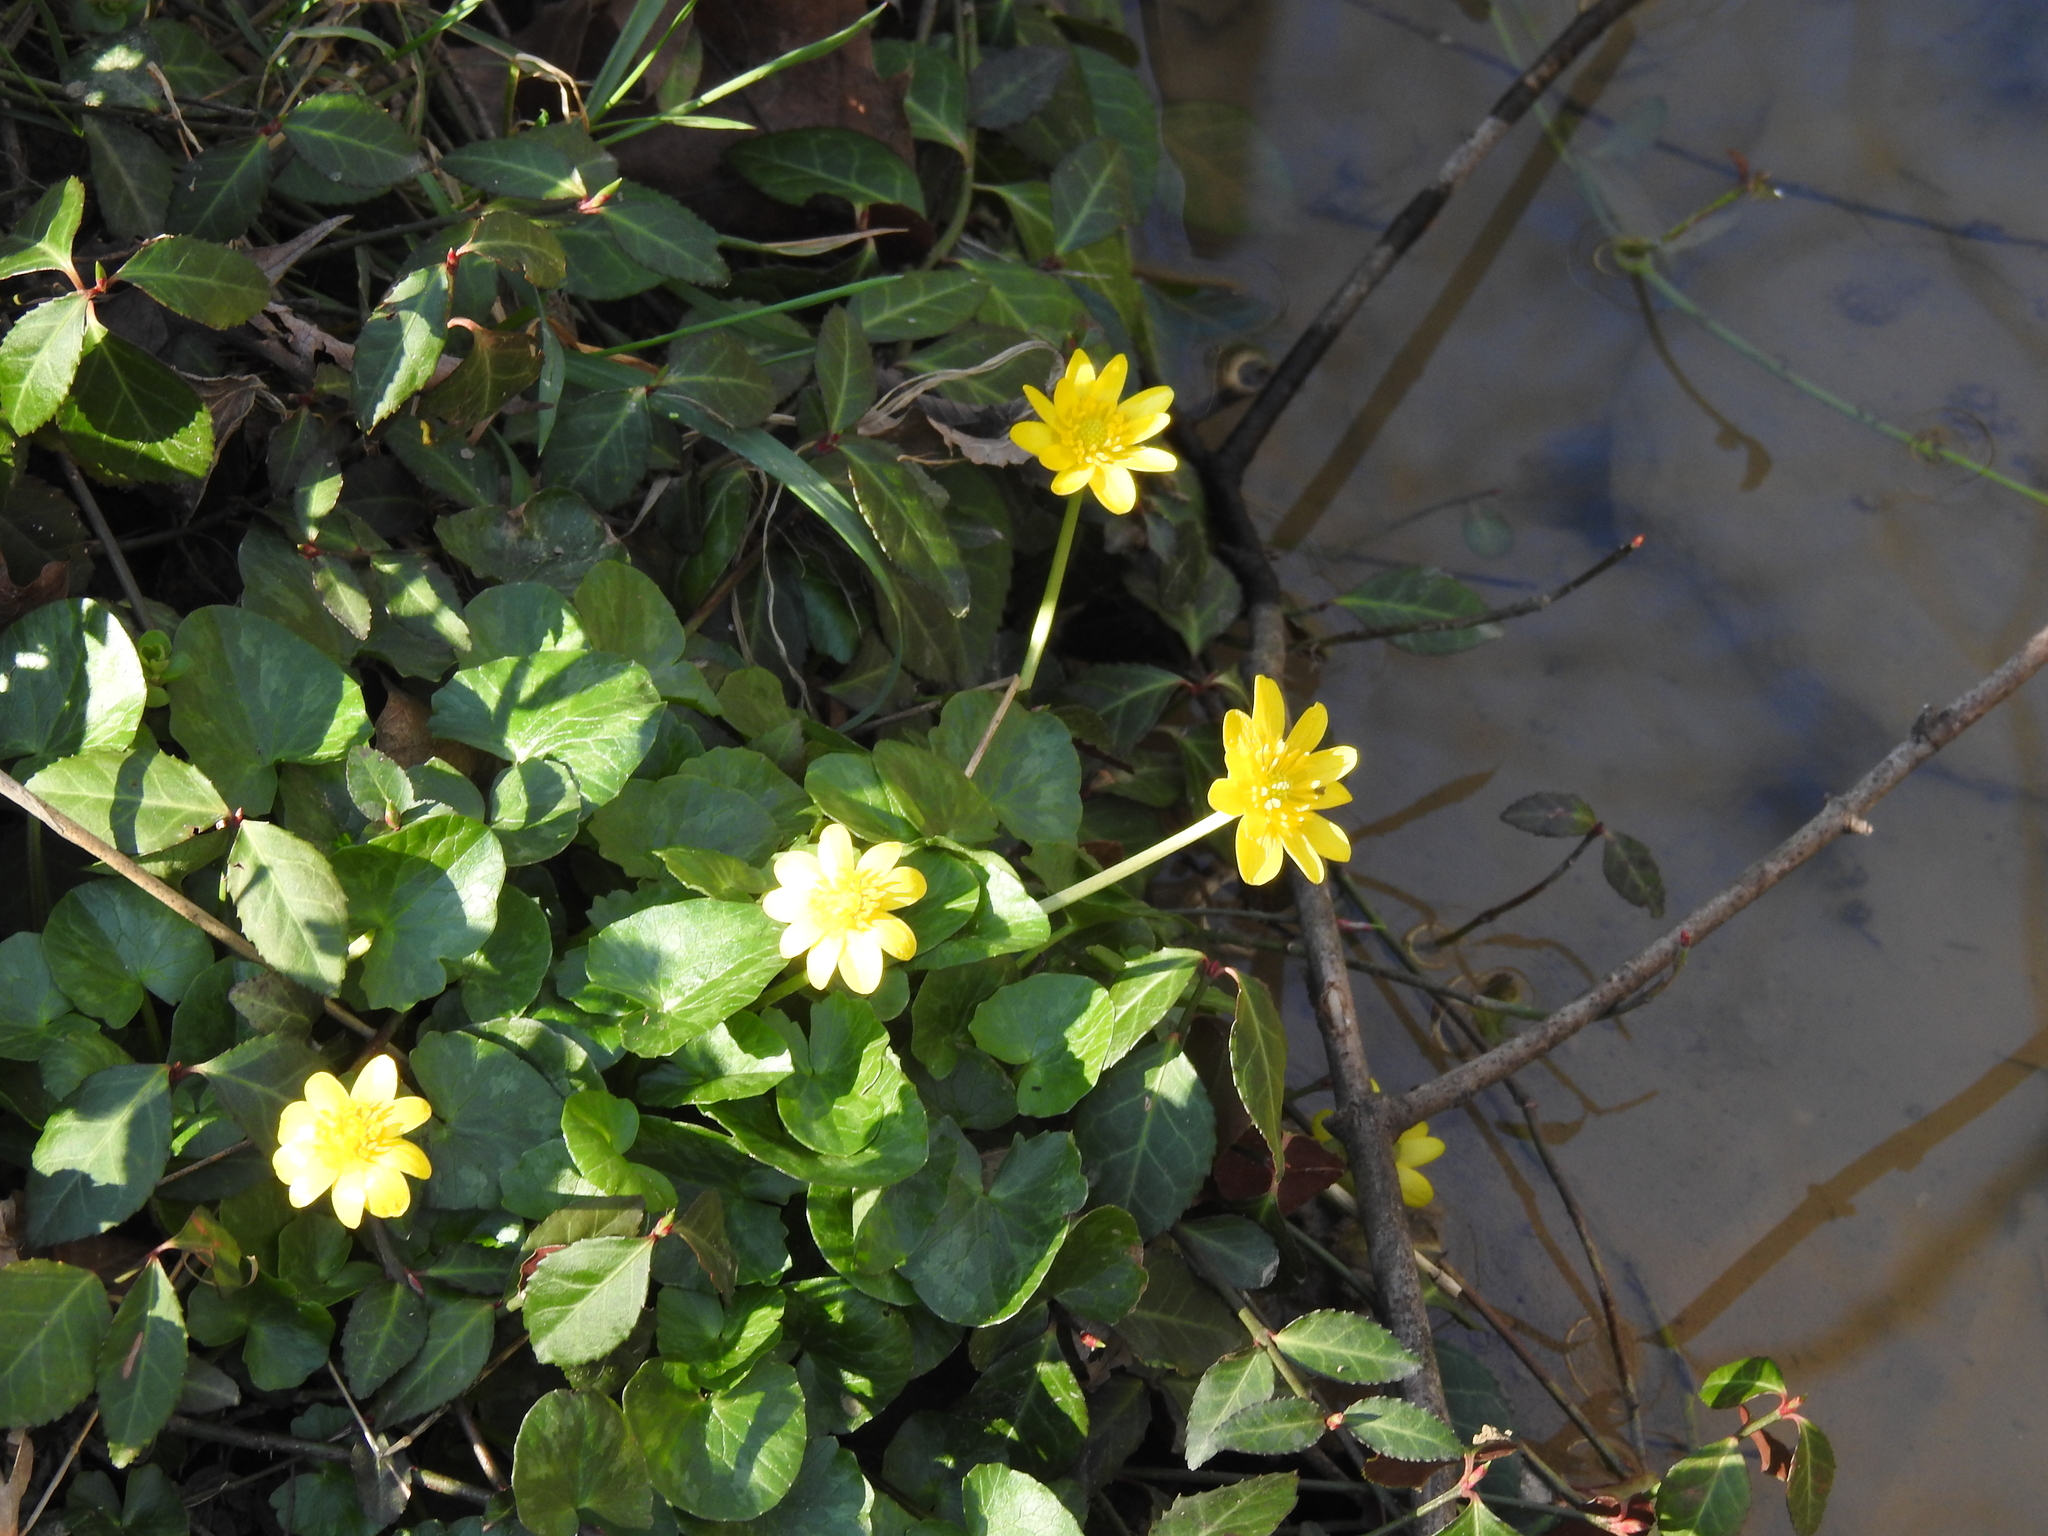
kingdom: Plantae
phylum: Tracheophyta
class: Magnoliopsida
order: Ranunculales
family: Ranunculaceae
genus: Ficaria
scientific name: Ficaria verna
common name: Lesser celandine
